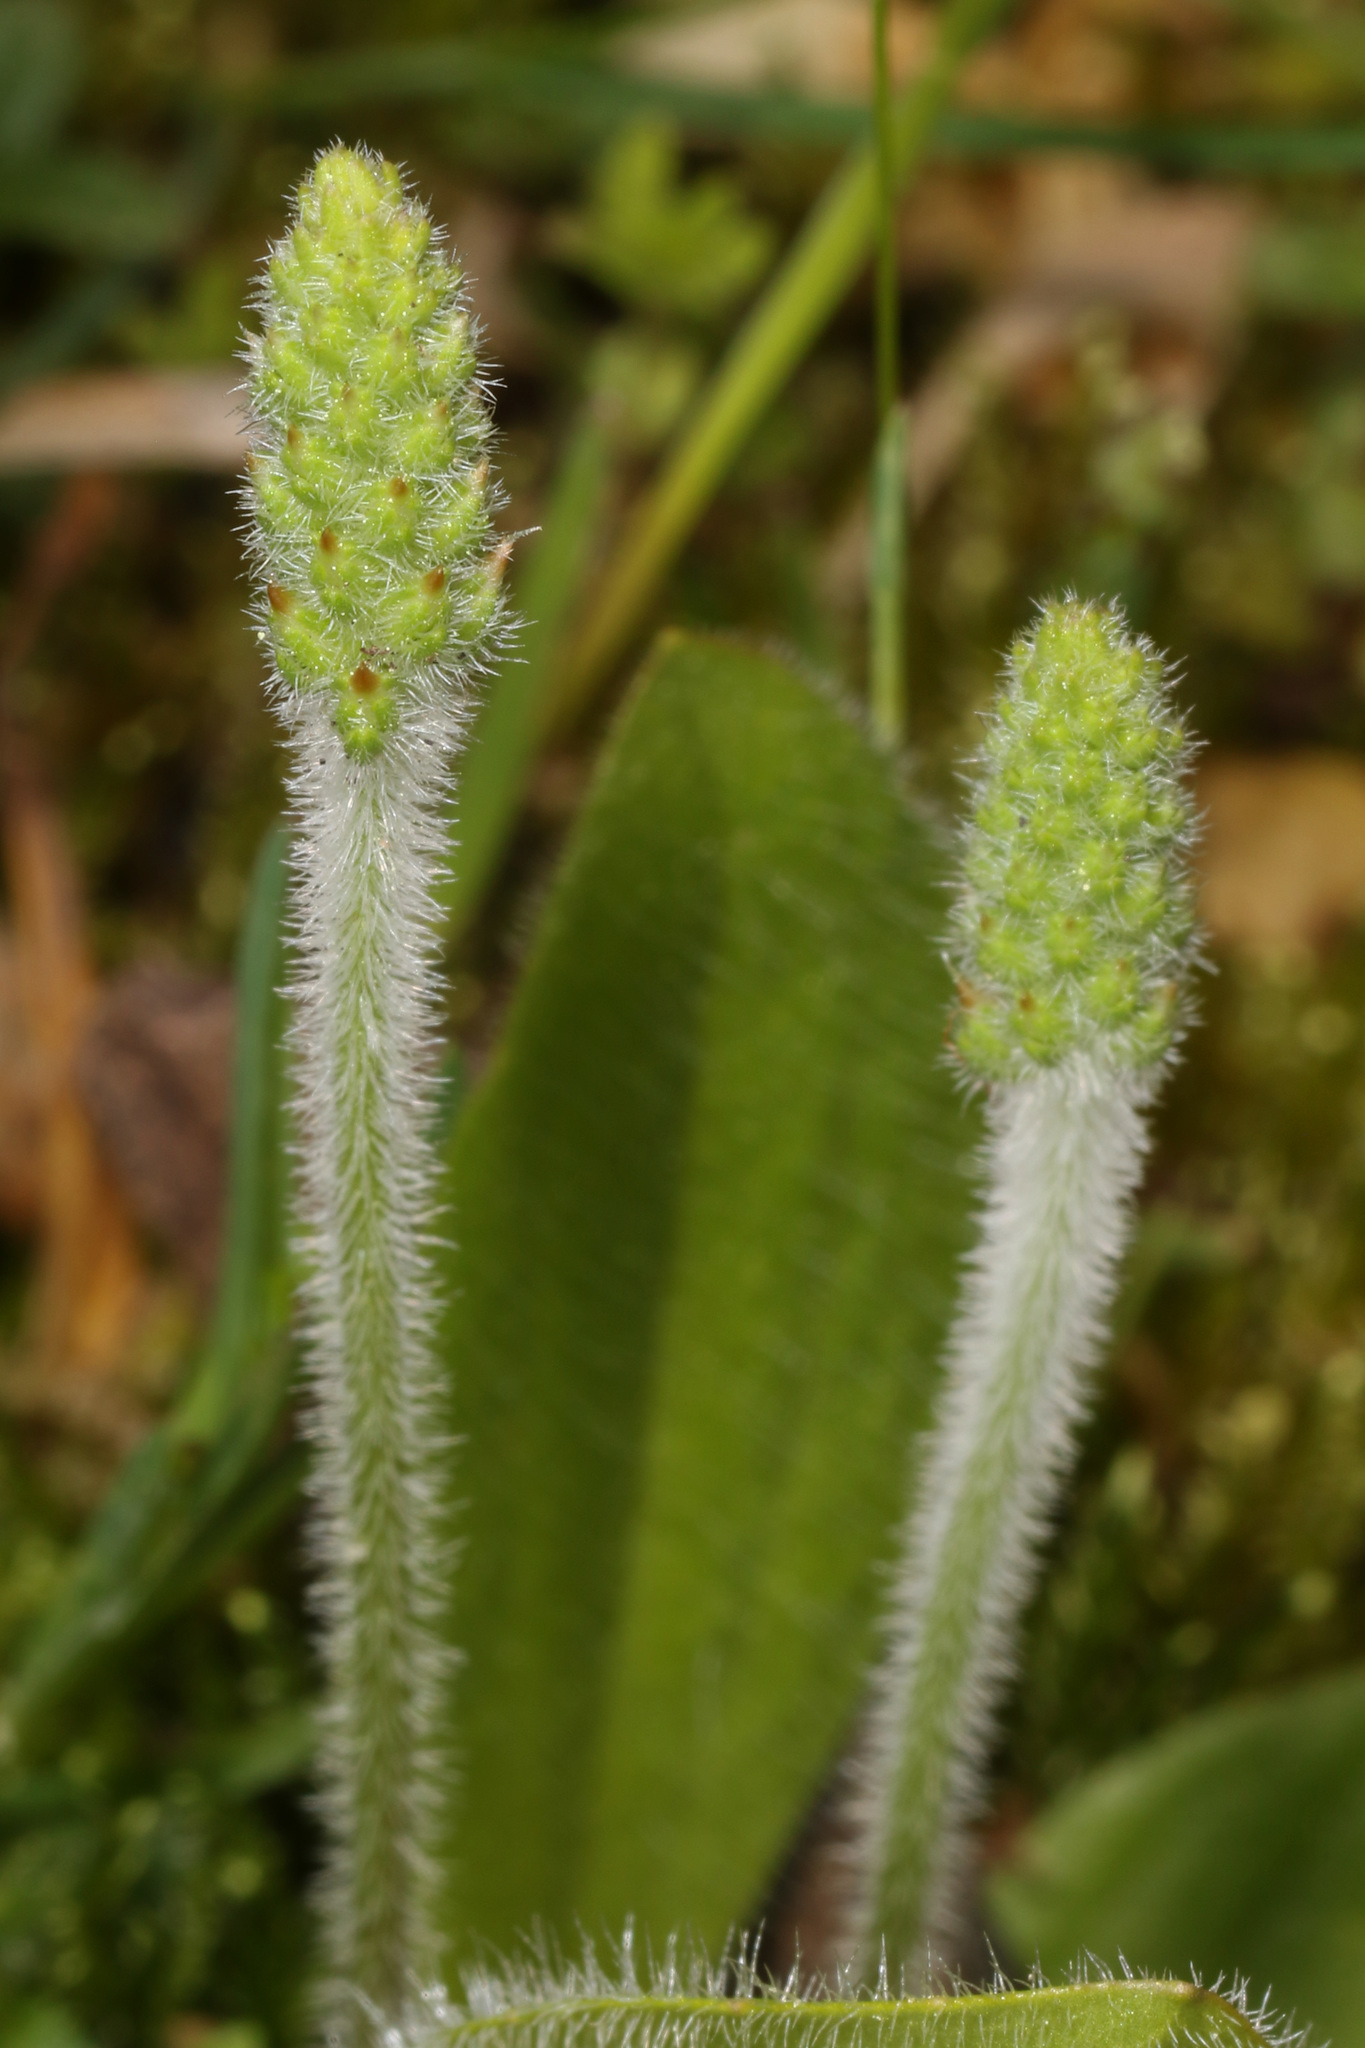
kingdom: Plantae
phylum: Tracheophyta
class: Magnoliopsida
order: Lamiales
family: Plantaginaceae
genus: Plantago
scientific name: Plantago virginica
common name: Hoary plantain
